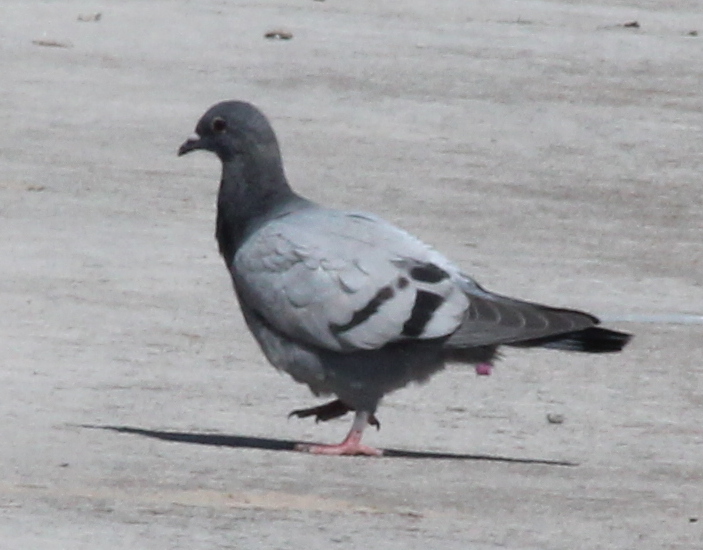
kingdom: Animalia
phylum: Chordata
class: Aves
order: Columbiformes
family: Columbidae
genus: Columba
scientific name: Columba livia
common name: Rock pigeon
